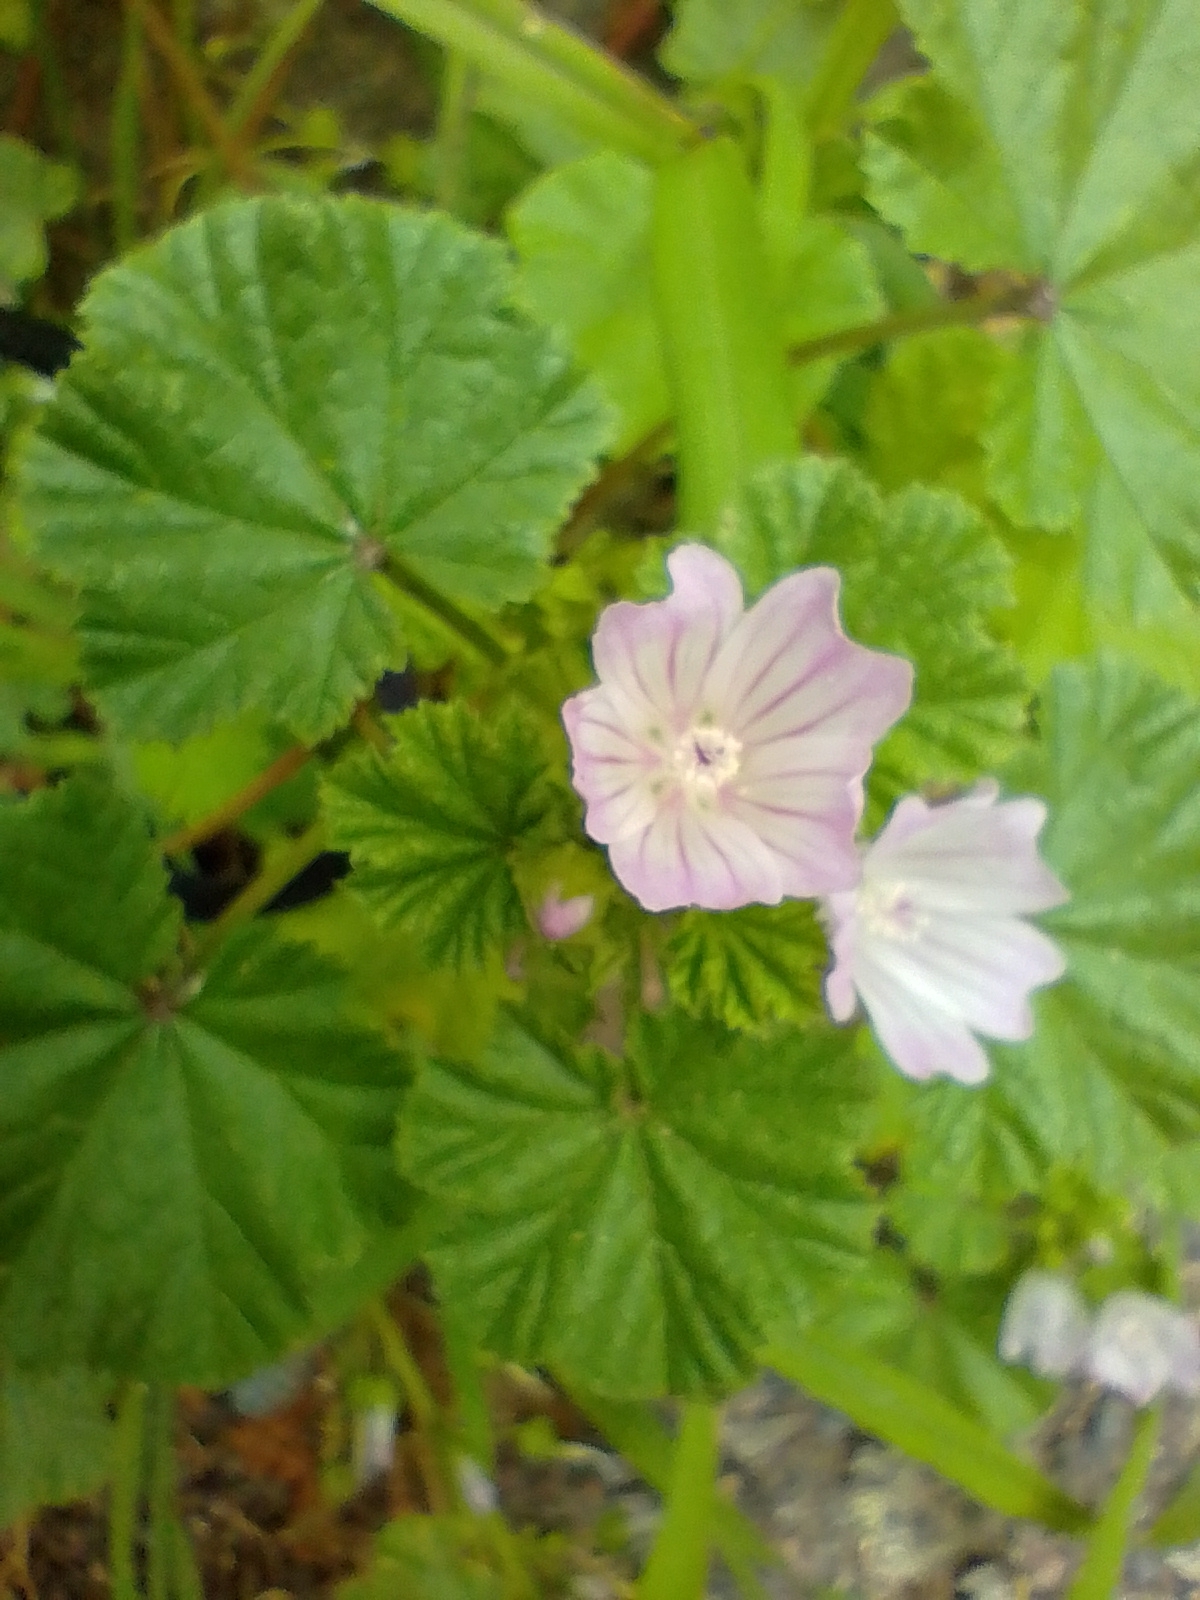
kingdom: Plantae
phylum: Tracheophyta
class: Magnoliopsida
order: Malvales
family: Malvaceae
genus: Malva
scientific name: Malva neglecta
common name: Common mallow
